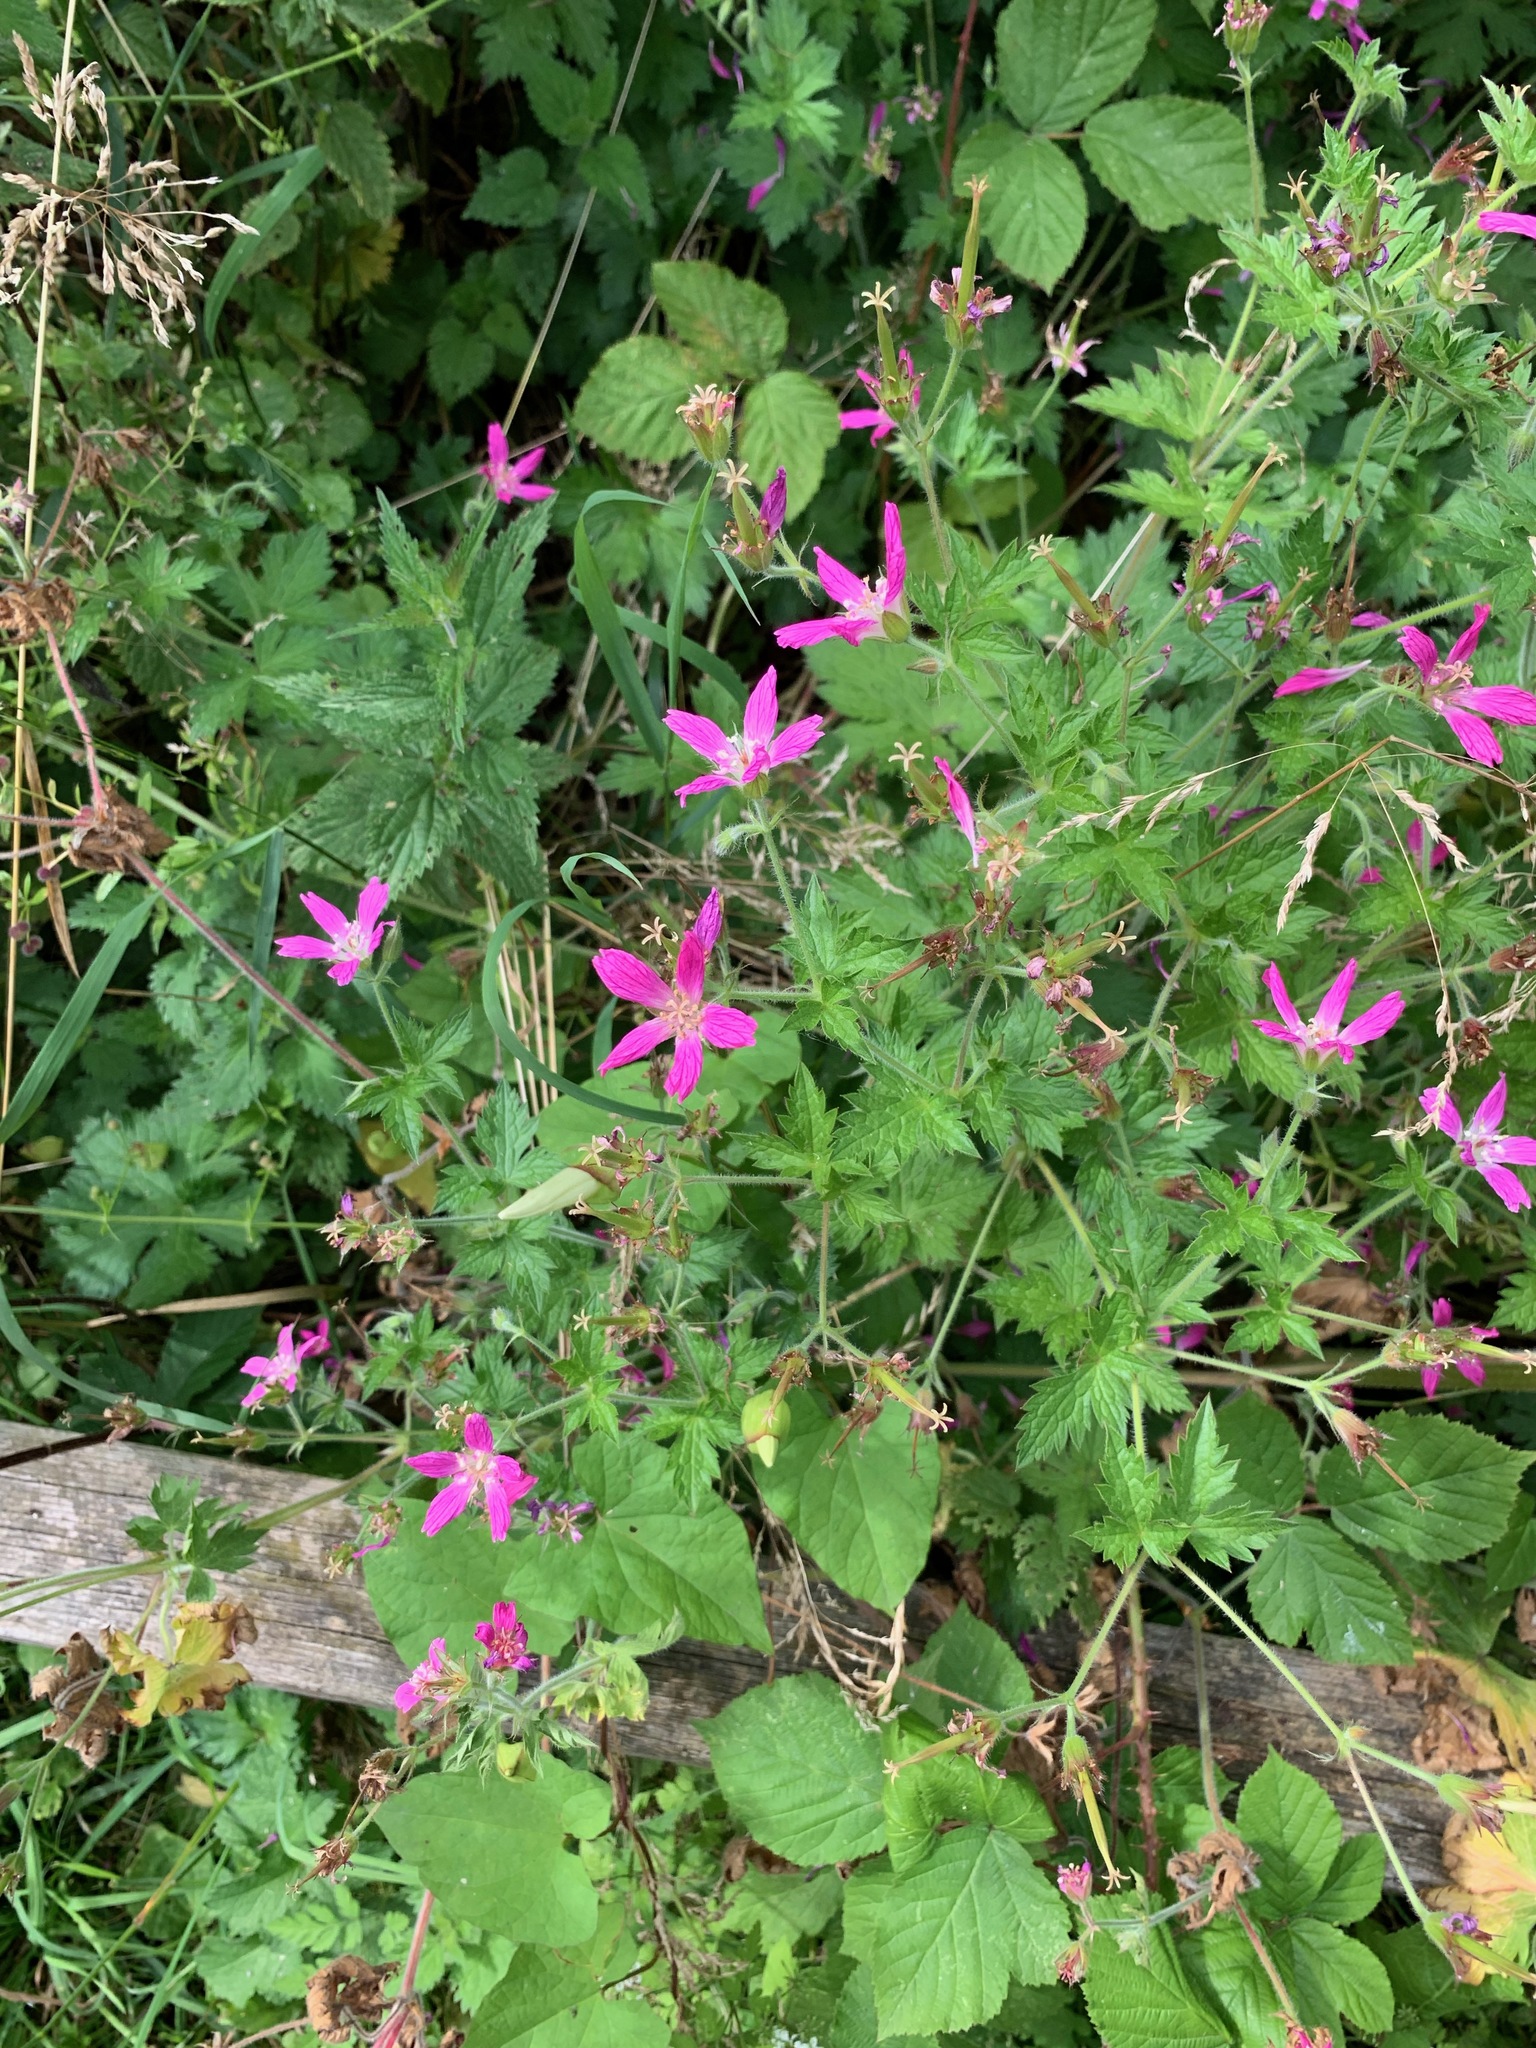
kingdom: Plantae
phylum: Tracheophyta
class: Magnoliopsida
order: Geraniales
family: Geraniaceae
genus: Geranium
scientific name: Geranium oxonianum
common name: Druce's crane's-bill
